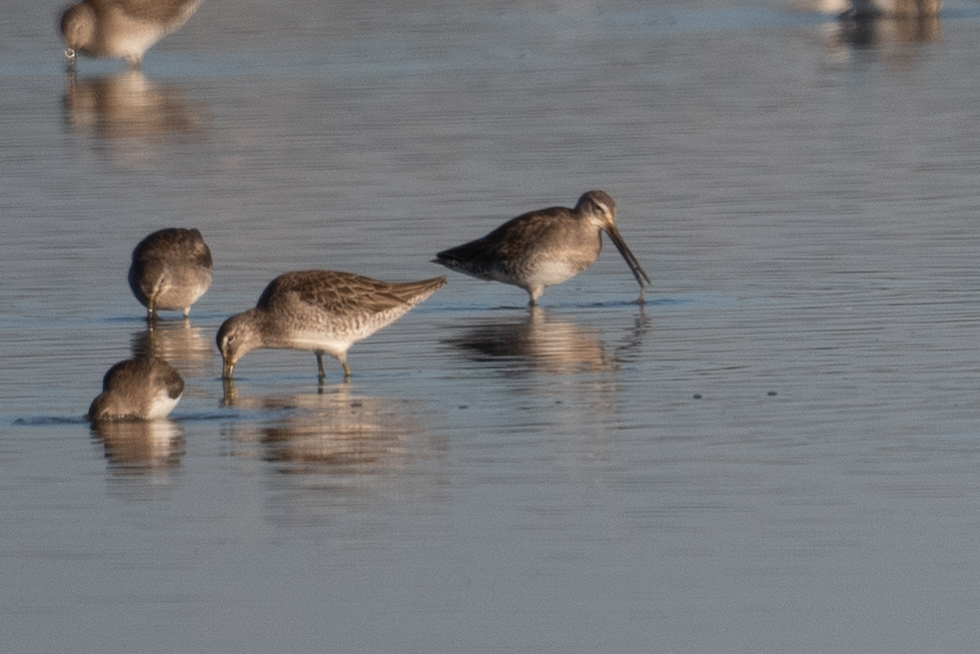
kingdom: Animalia
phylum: Chordata
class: Aves
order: Charadriiformes
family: Scolopacidae
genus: Limnodromus
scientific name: Limnodromus scolopaceus
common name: Long-billed dowitcher
